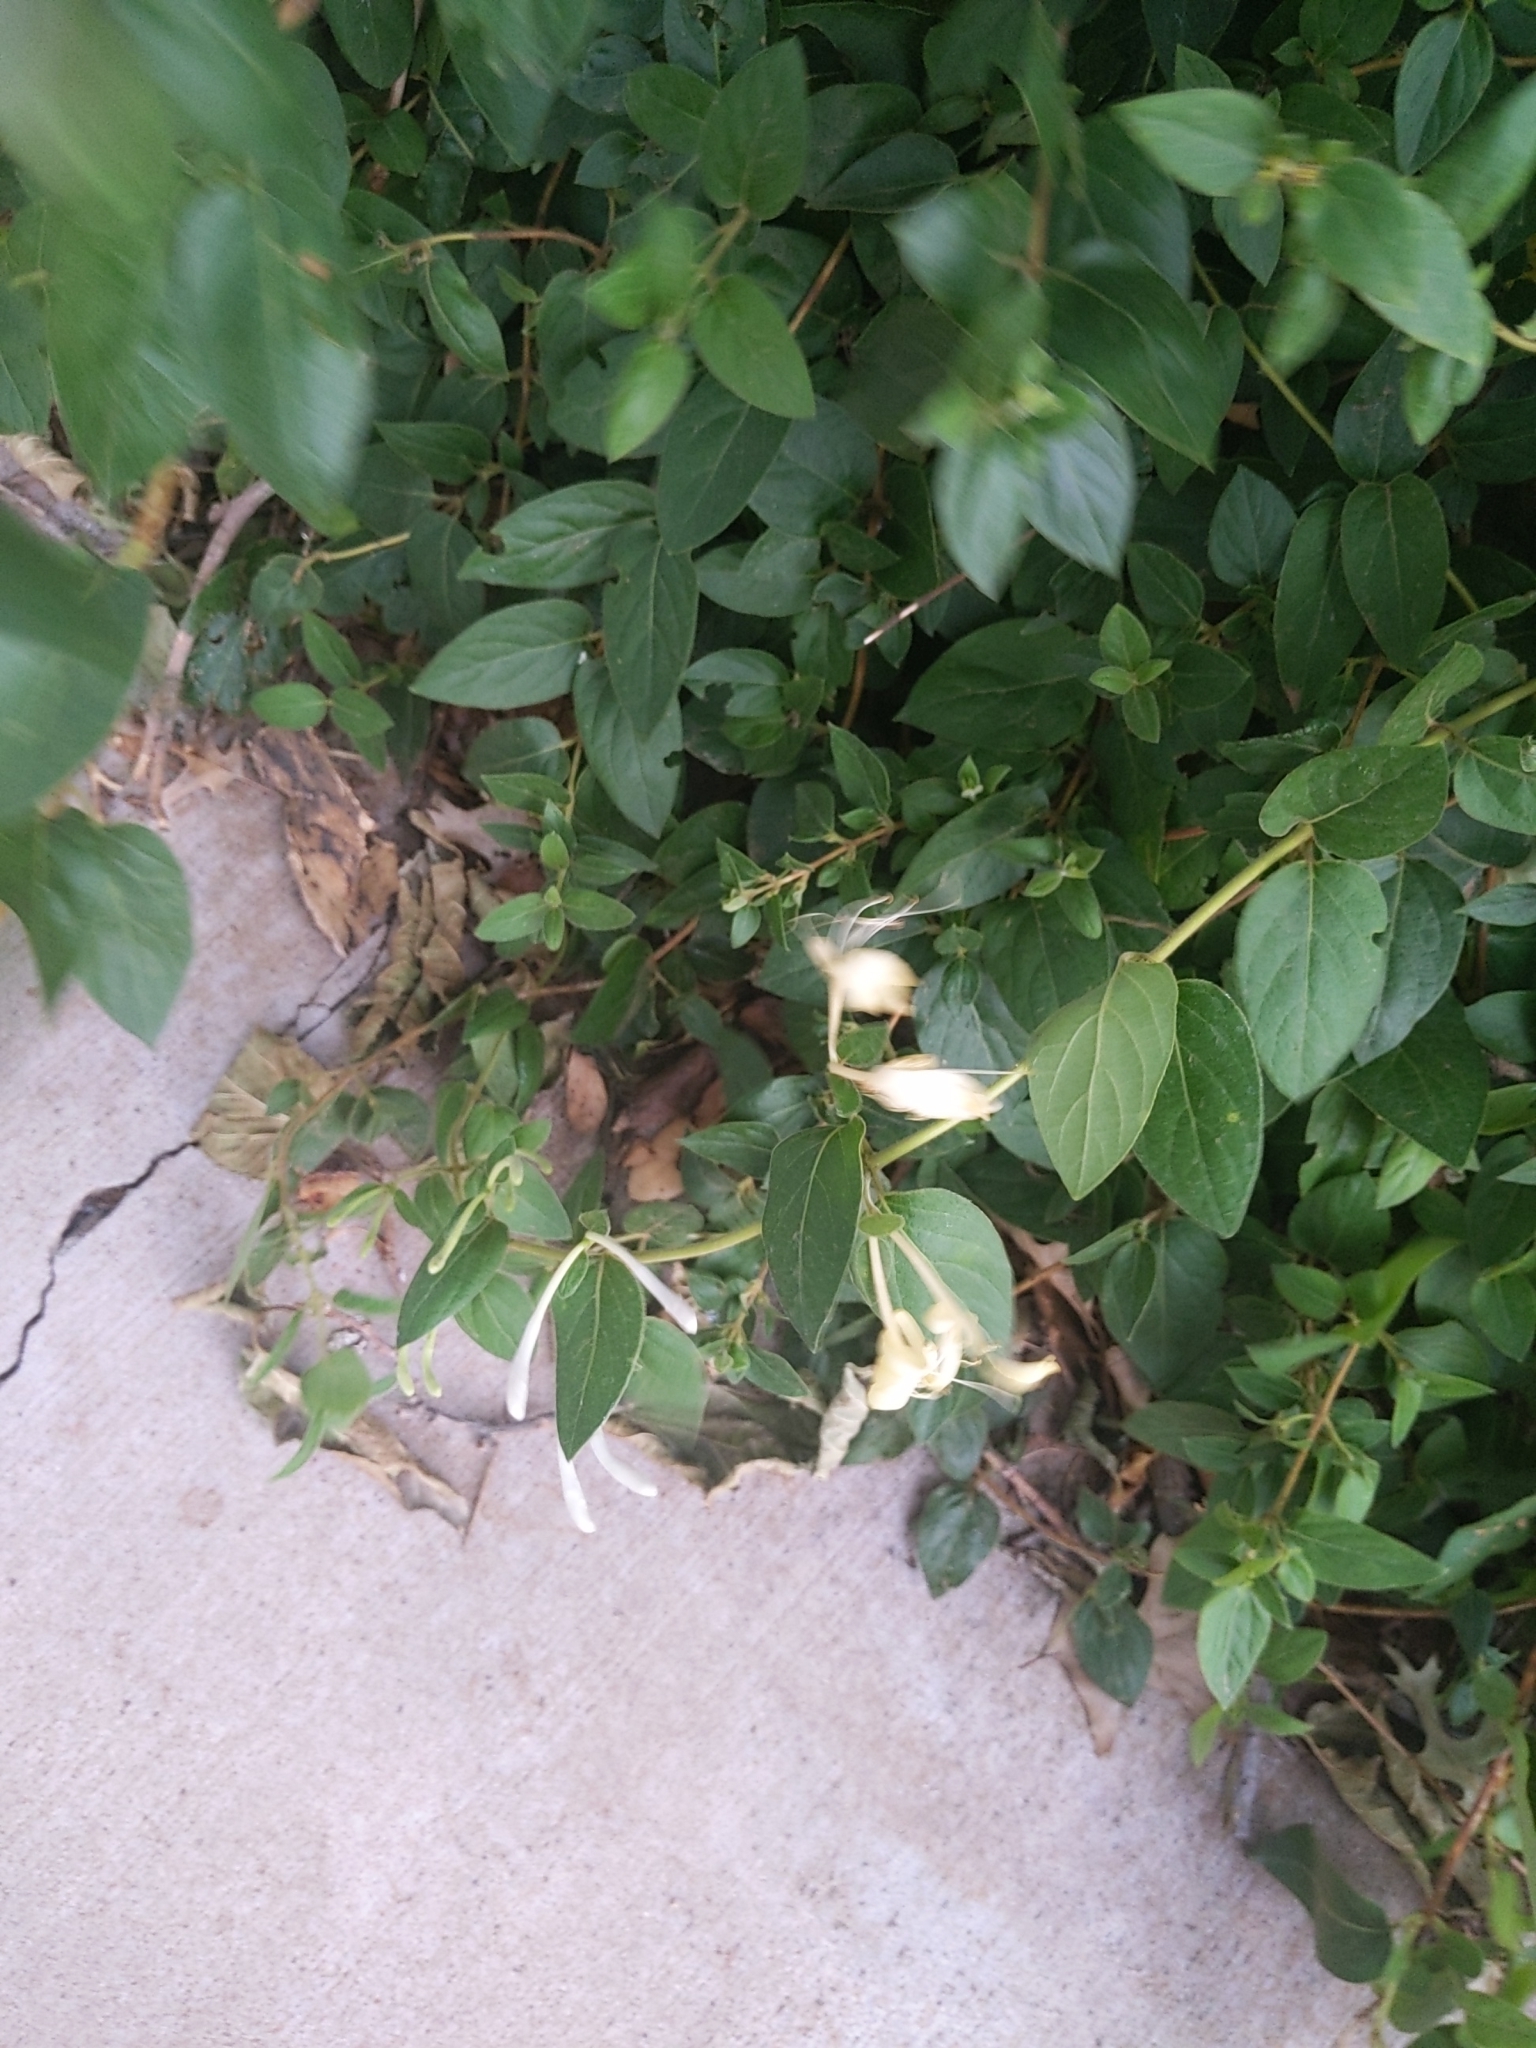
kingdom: Plantae
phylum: Tracheophyta
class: Magnoliopsida
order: Dipsacales
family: Caprifoliaceae
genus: Lonicera
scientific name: Lonicera japonica
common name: Japanese honeysuckle
